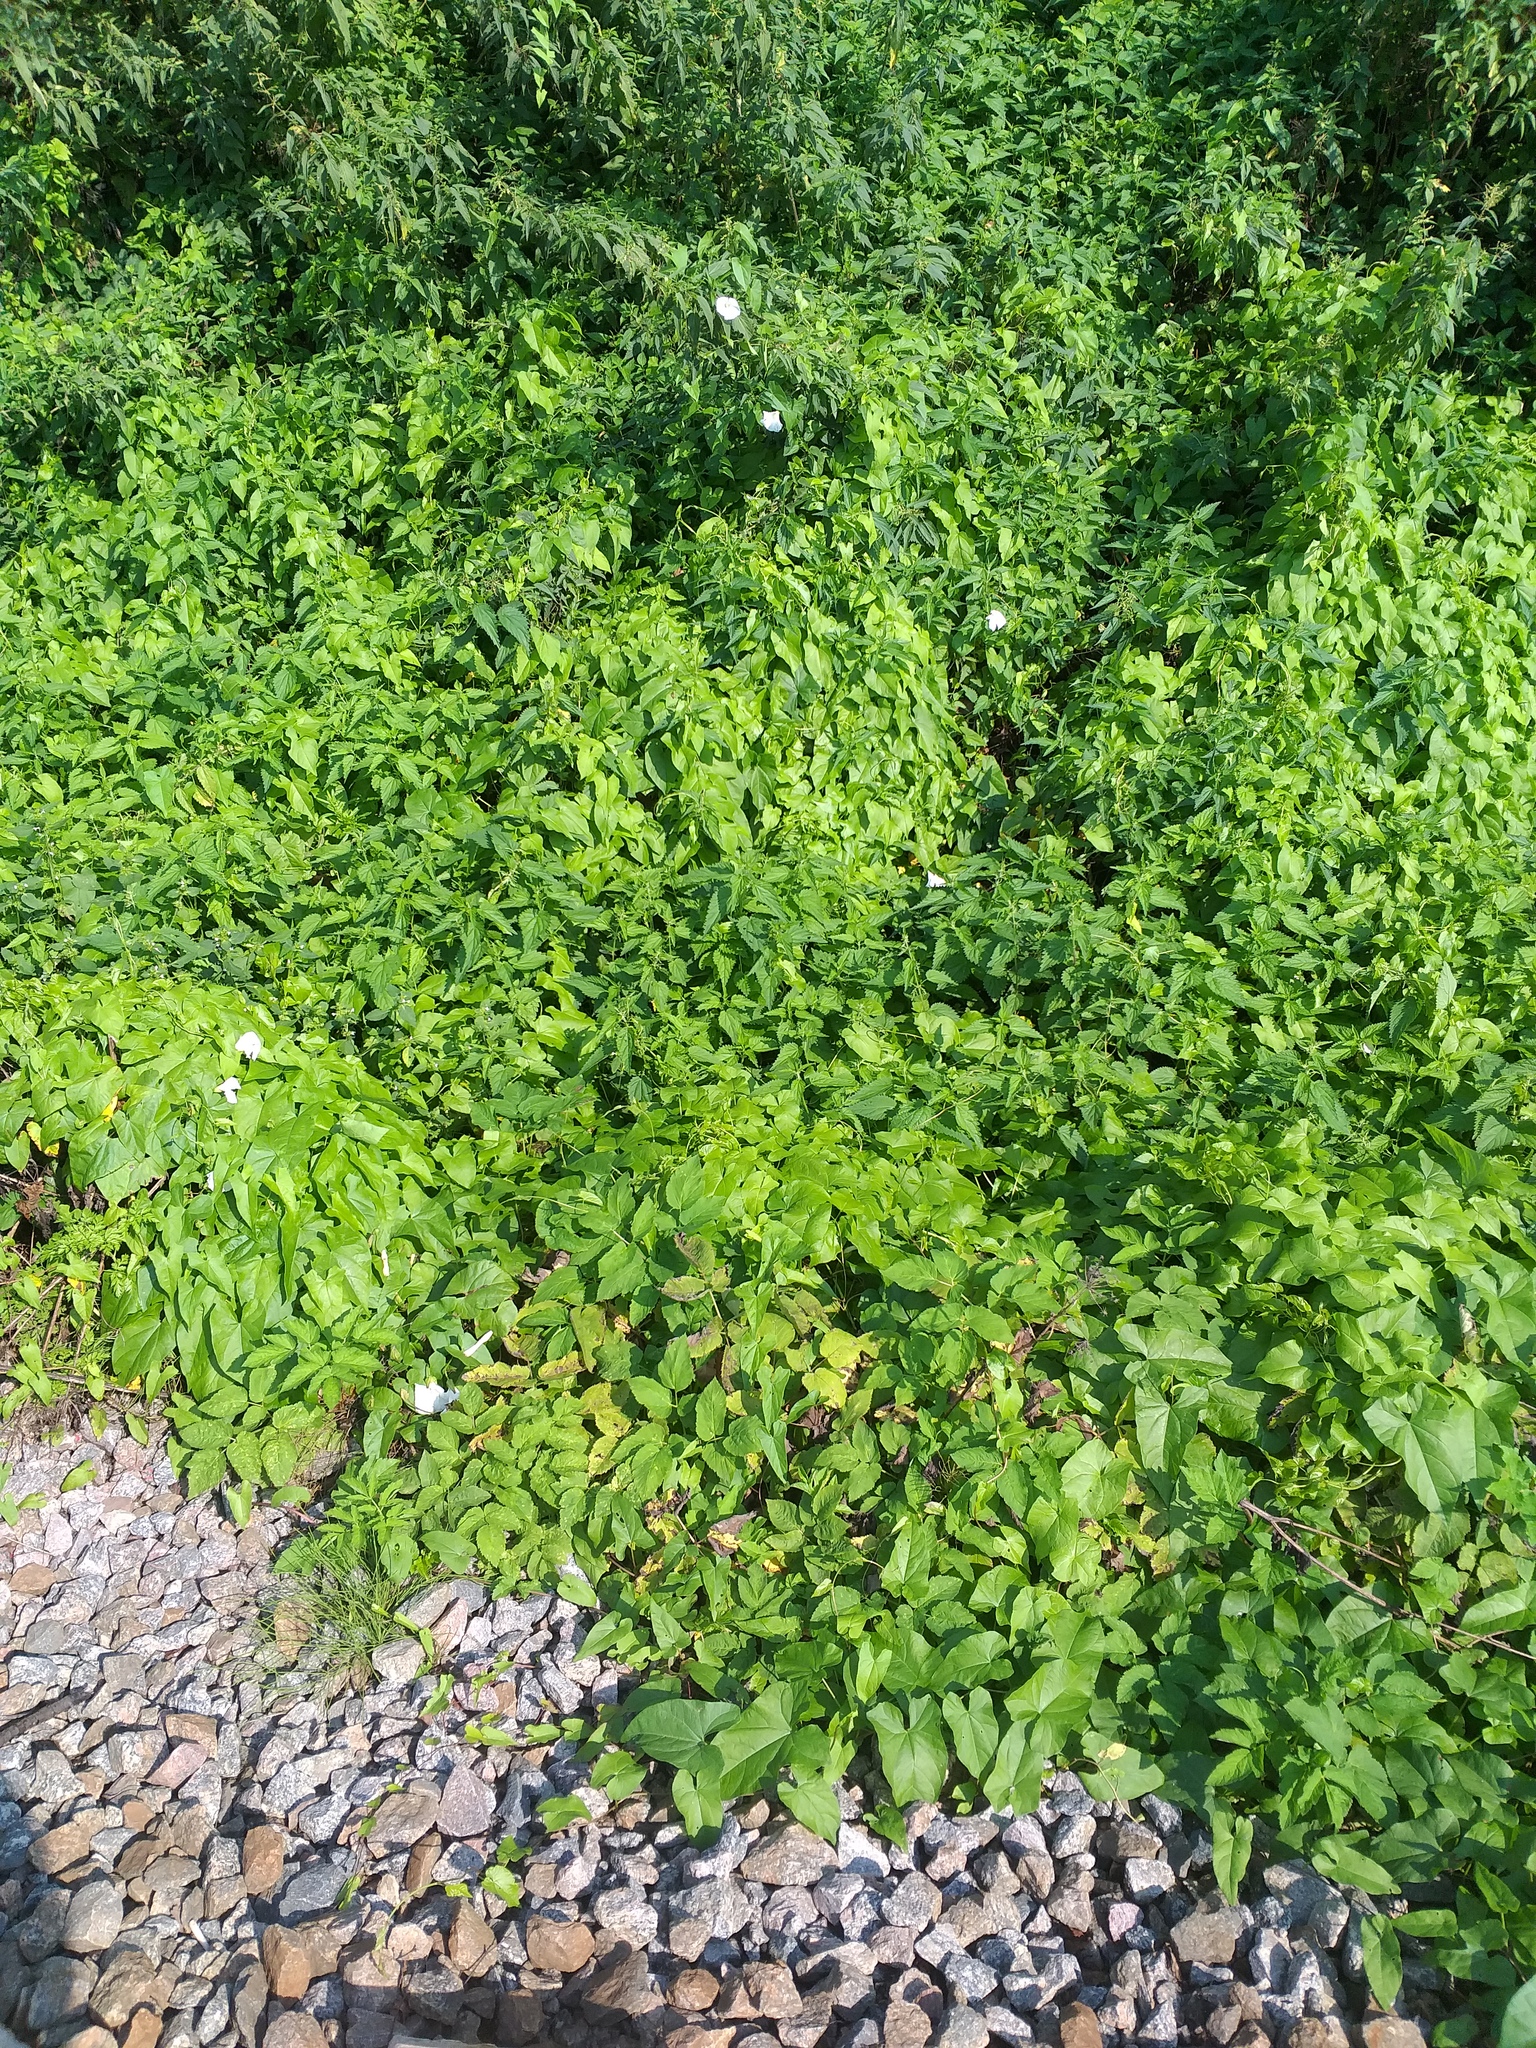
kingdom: Plantae
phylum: Tracheophyta
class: Magnoliopsida
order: Solanales
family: Convolvulaceae
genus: Calystegia
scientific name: Calystegia sepium
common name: Hedge bindweed
